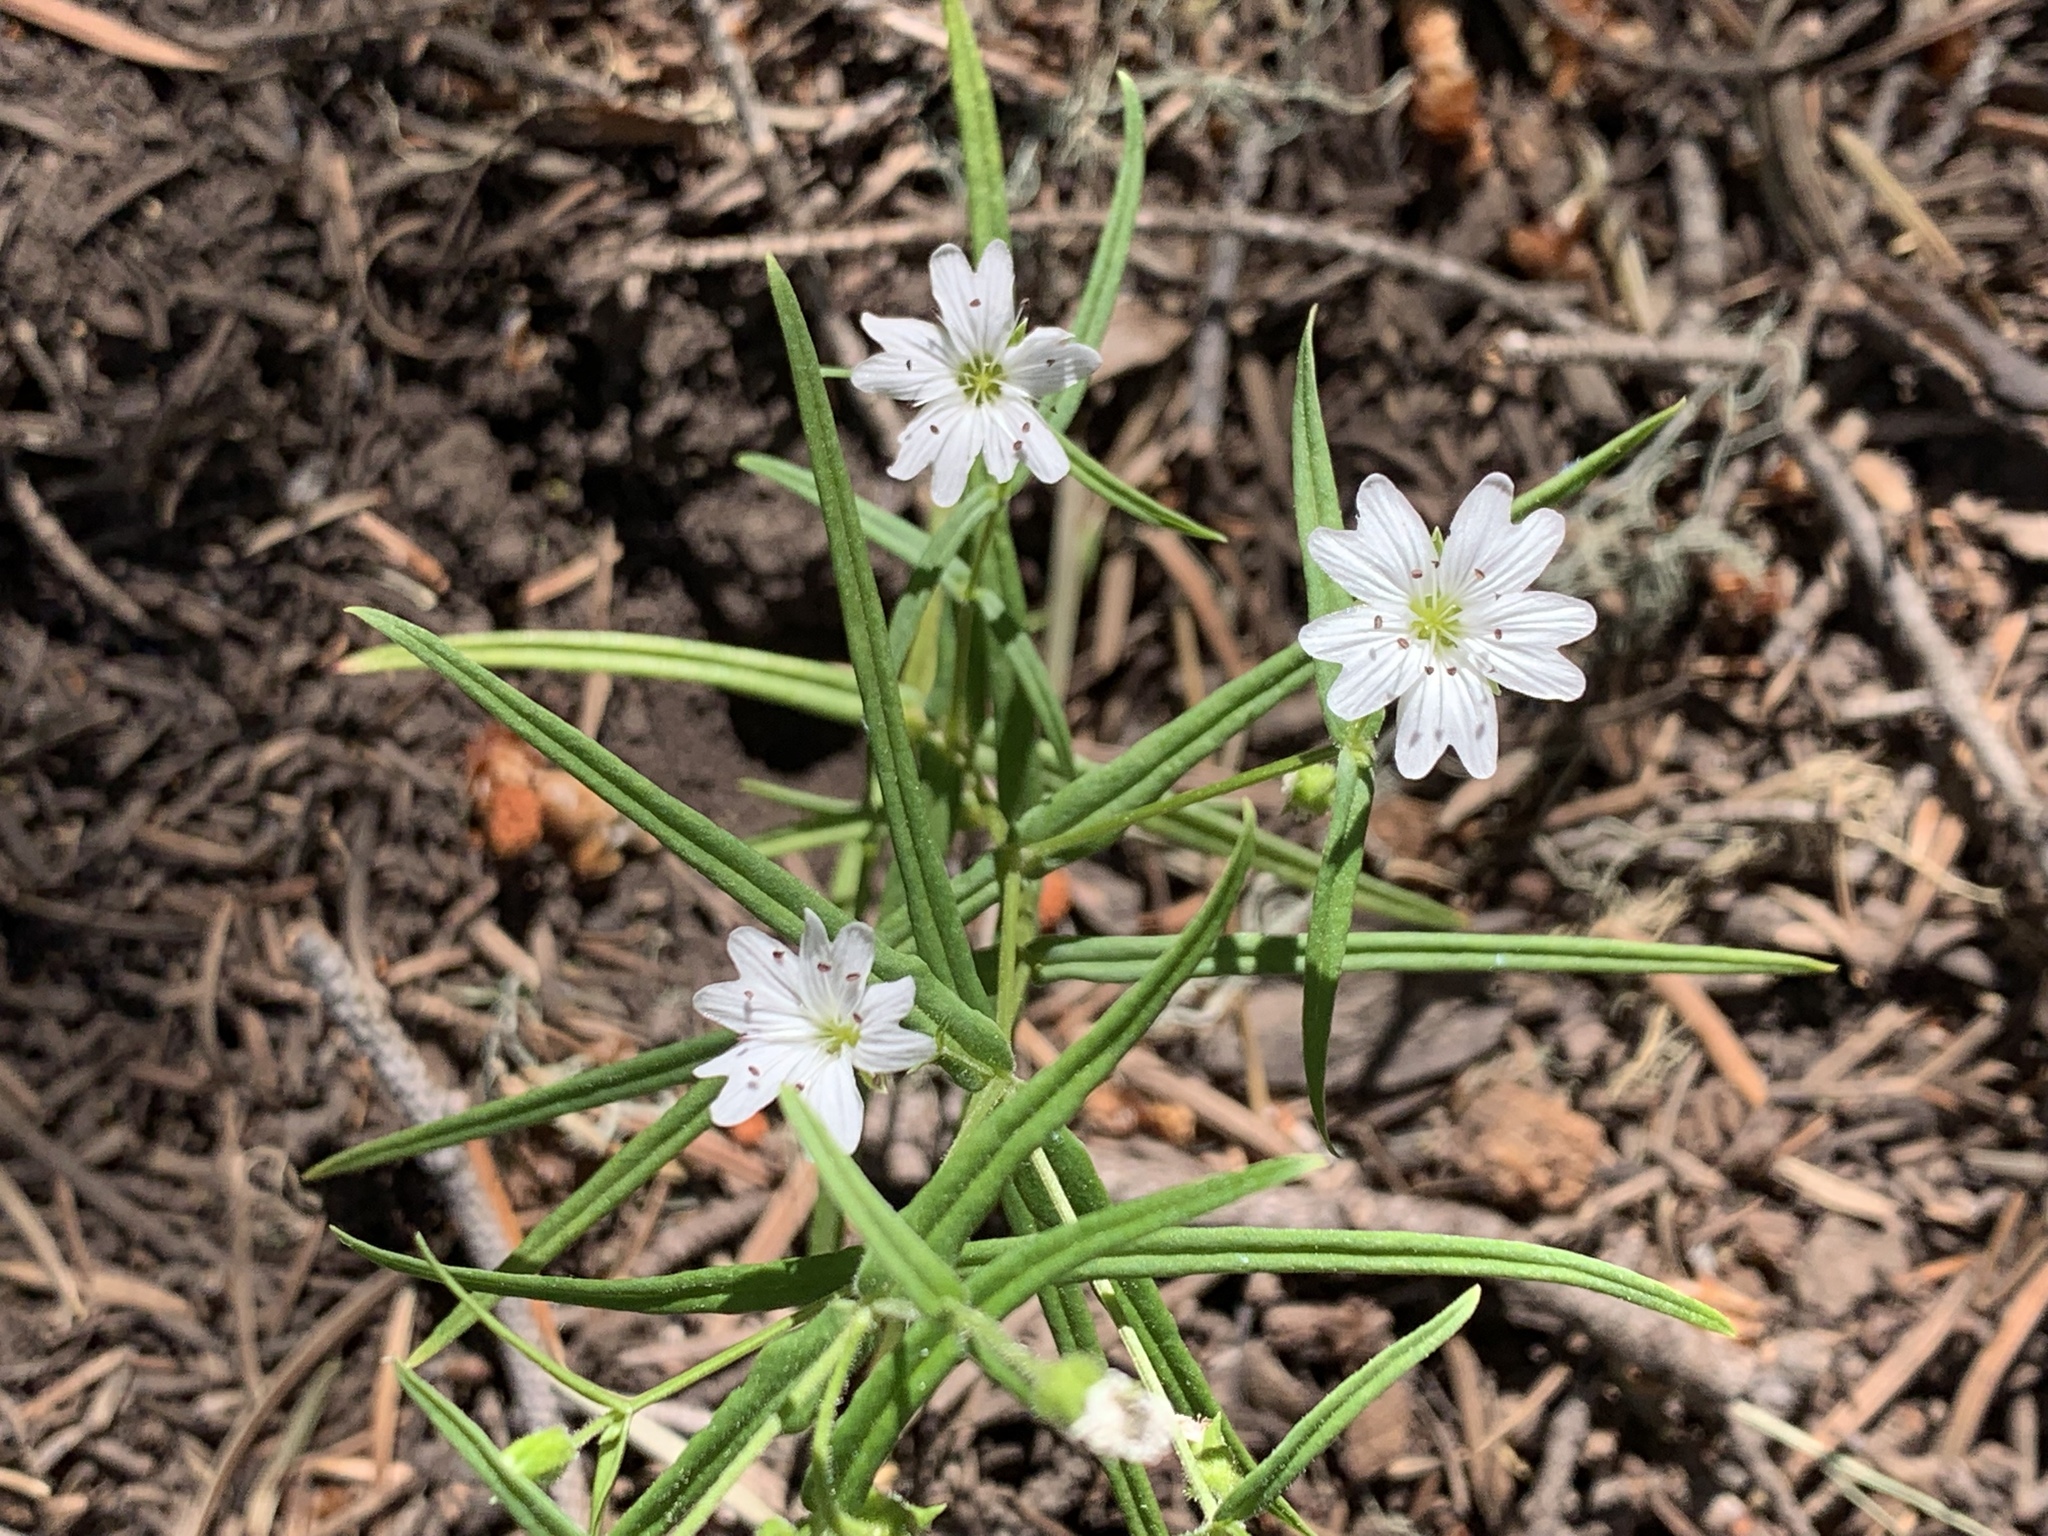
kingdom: Plantae
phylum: Tracheophyta
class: Magnoliopsida
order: Caryophyllales
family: Caryophyllaceae
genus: Schizotechium
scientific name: Schizotechium jamesianum
